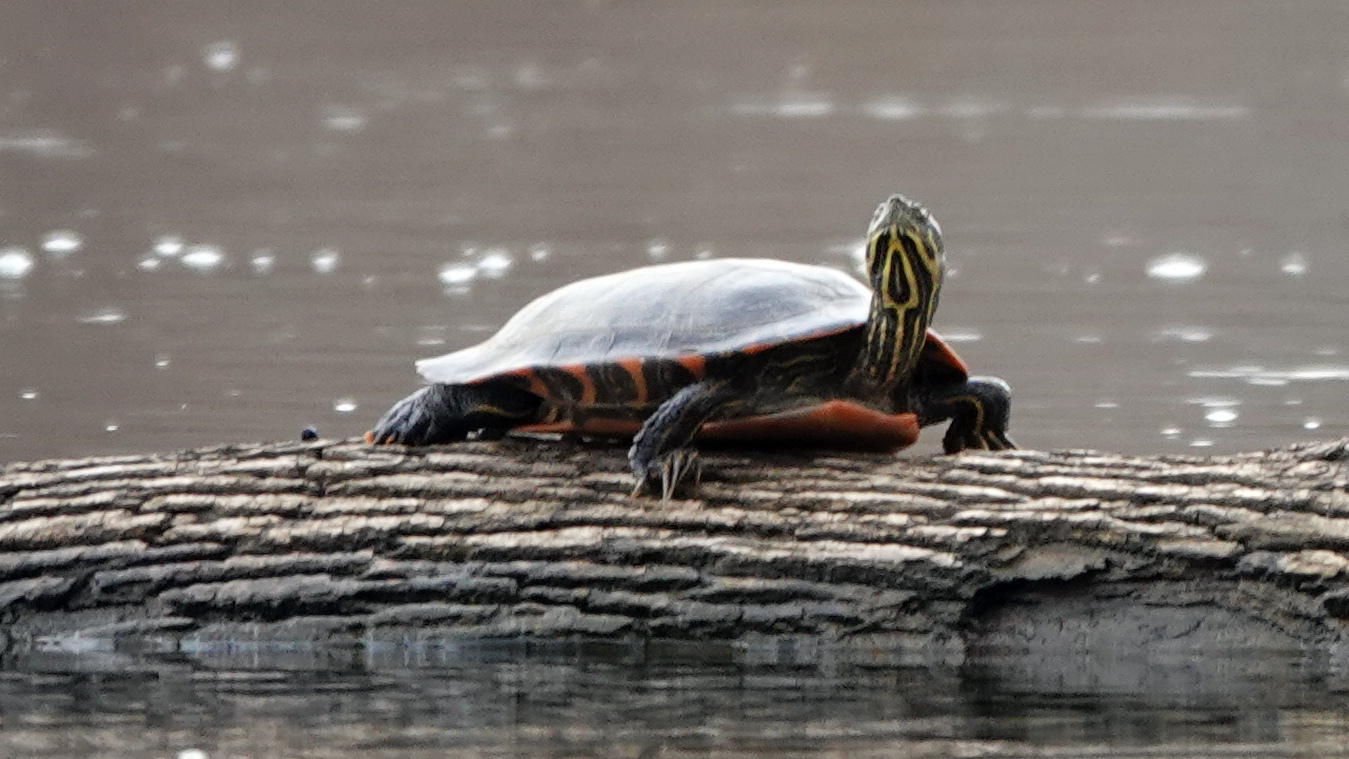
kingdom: Animalia
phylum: Chordata
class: Testudines
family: Emydidae
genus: Pseudemys
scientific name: Pseudemys rubriventris
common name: American red-bellied turtle
